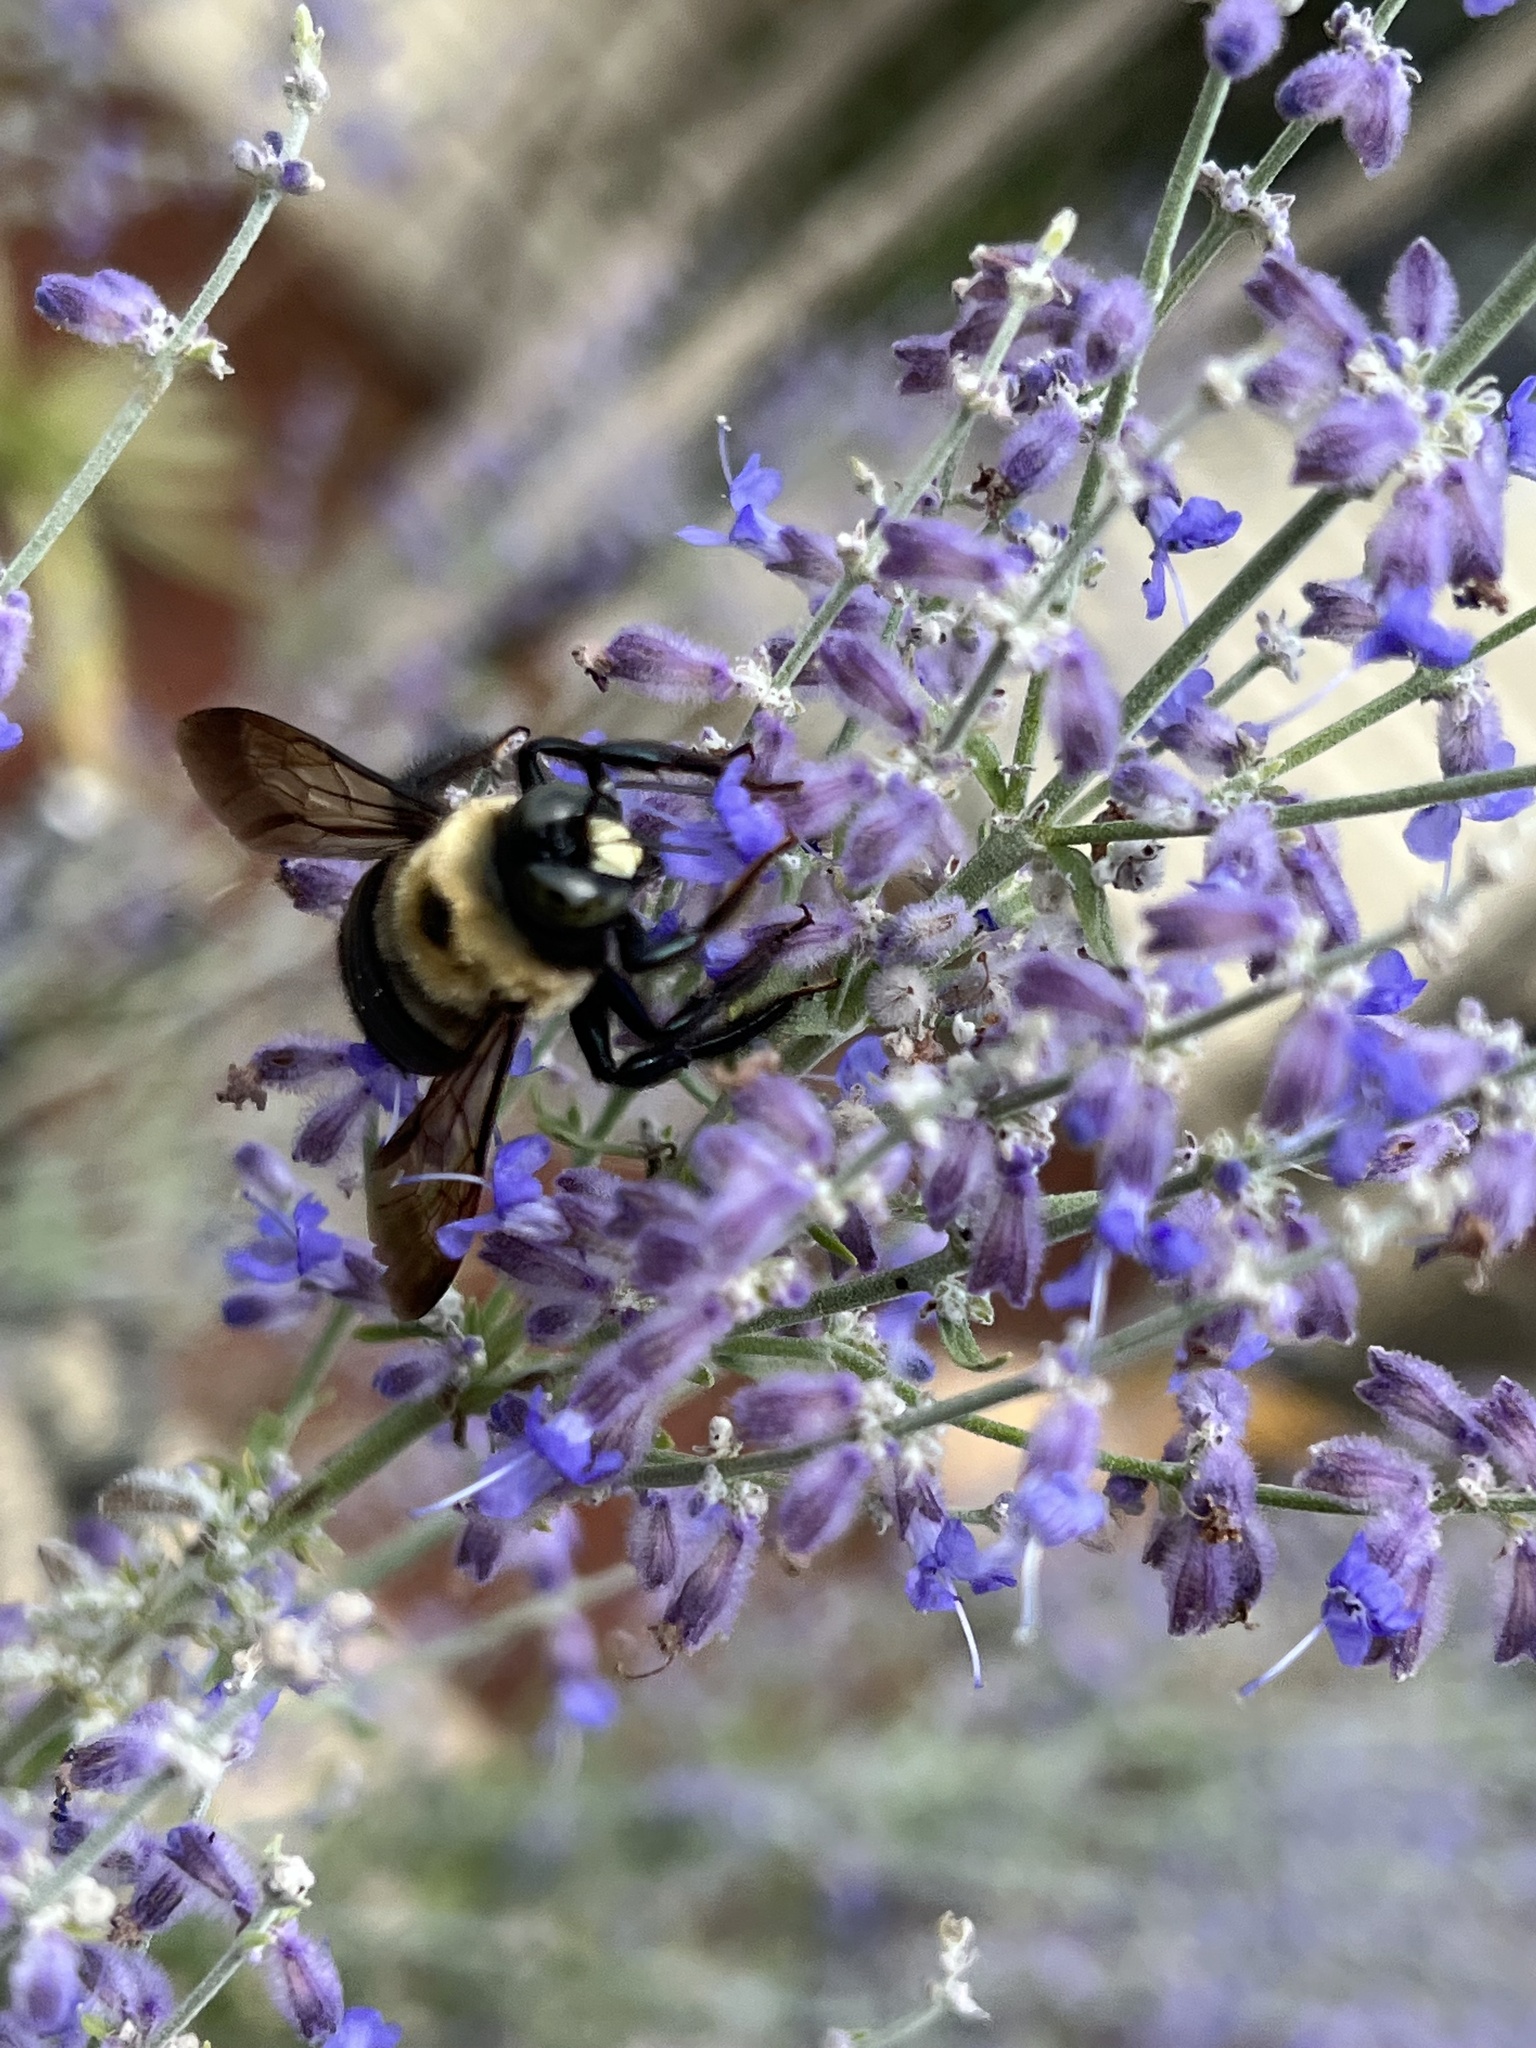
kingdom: Animalia
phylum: Arthropoda
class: Insecta
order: Hymenoptera
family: Apidae
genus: Xylocopa
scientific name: Xylocopa virginica
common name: Carpenter bee
